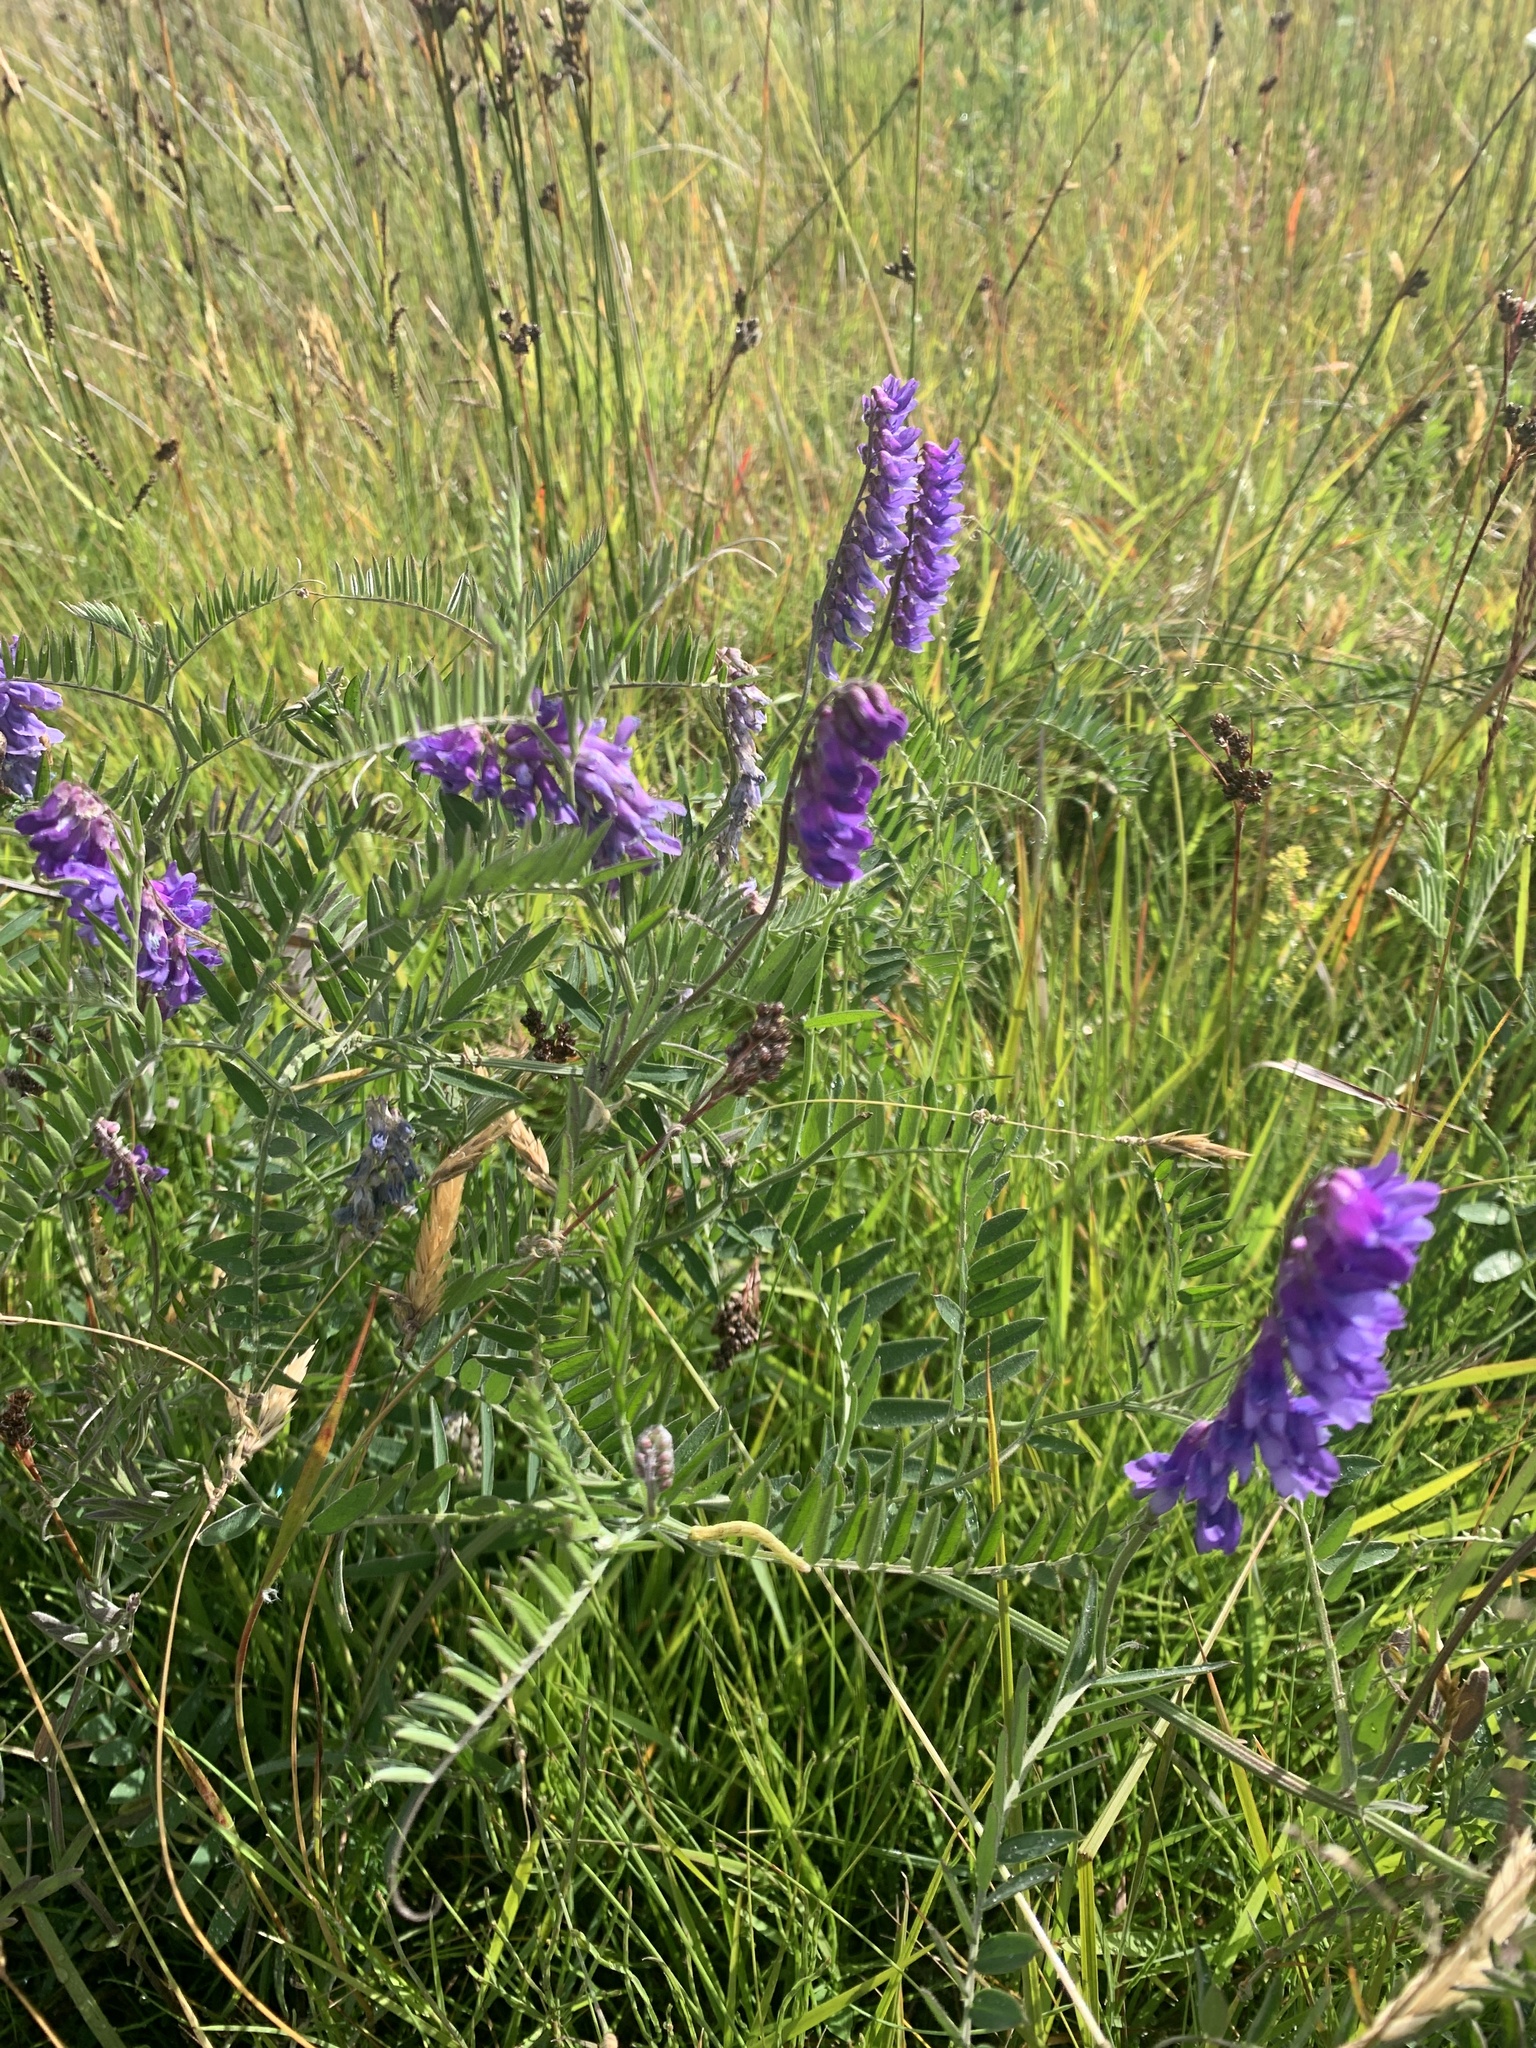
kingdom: Plantae
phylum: Tracheophyta
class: Magnoliopsida
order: Fabales
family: Fabaceae
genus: Vicia
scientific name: Vicia cracca
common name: Bird vetch
